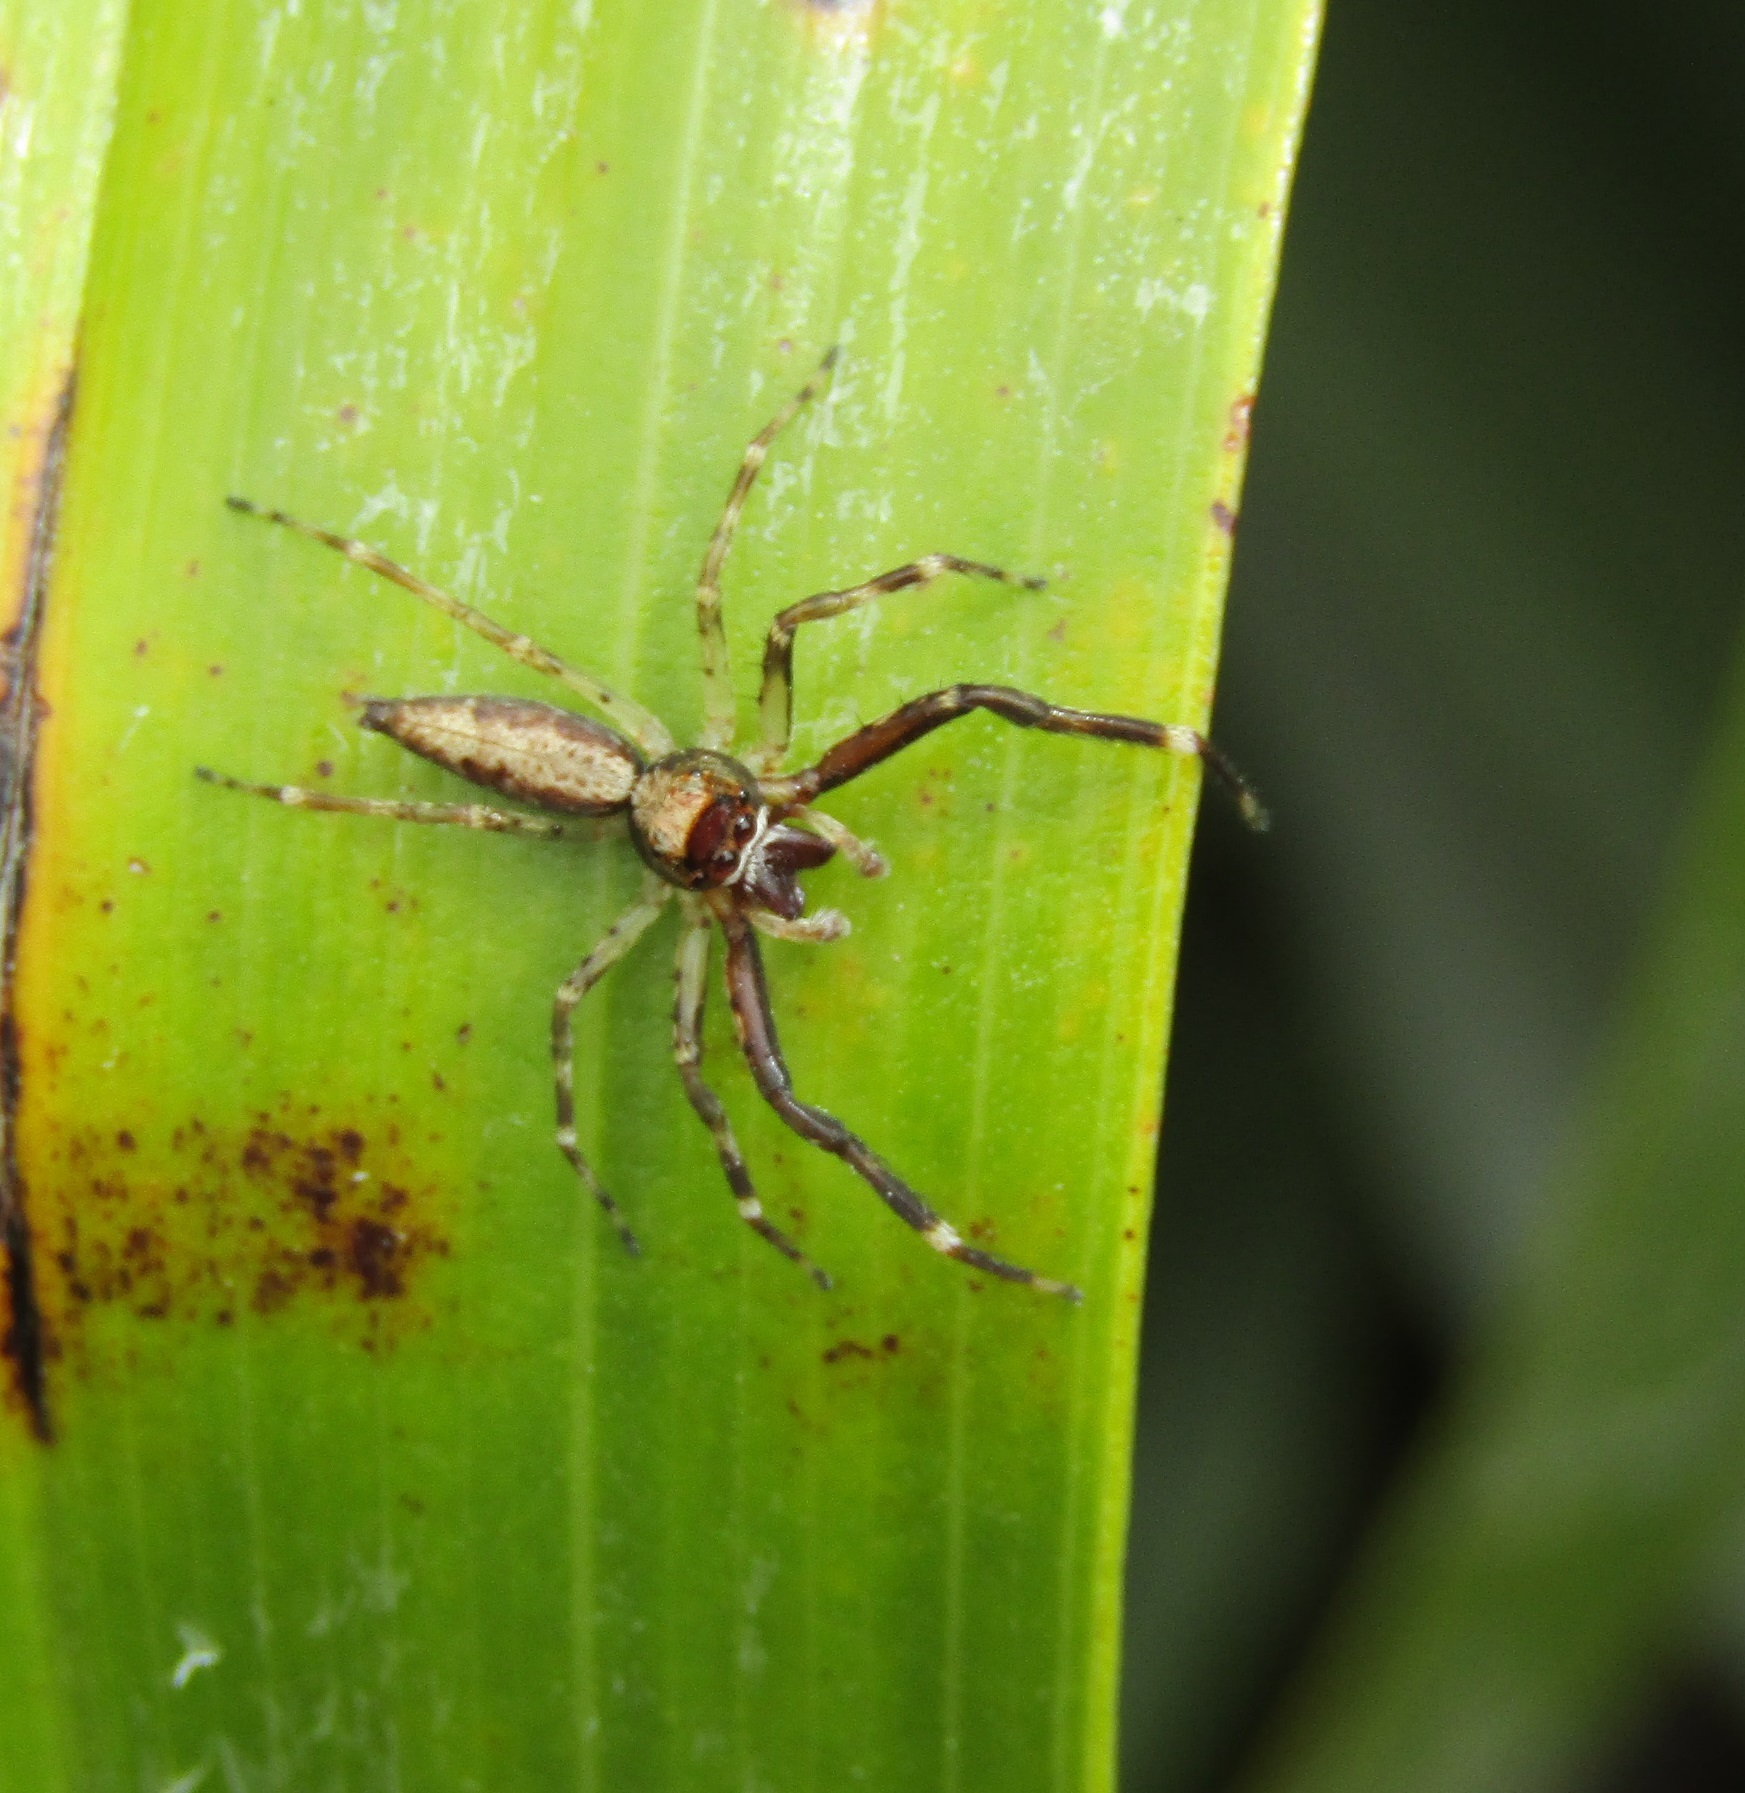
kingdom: Animalia
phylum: Arthropoda
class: Arachnida
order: Araneae
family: Salticidae
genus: Helpis
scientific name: Helpis minitabunda
